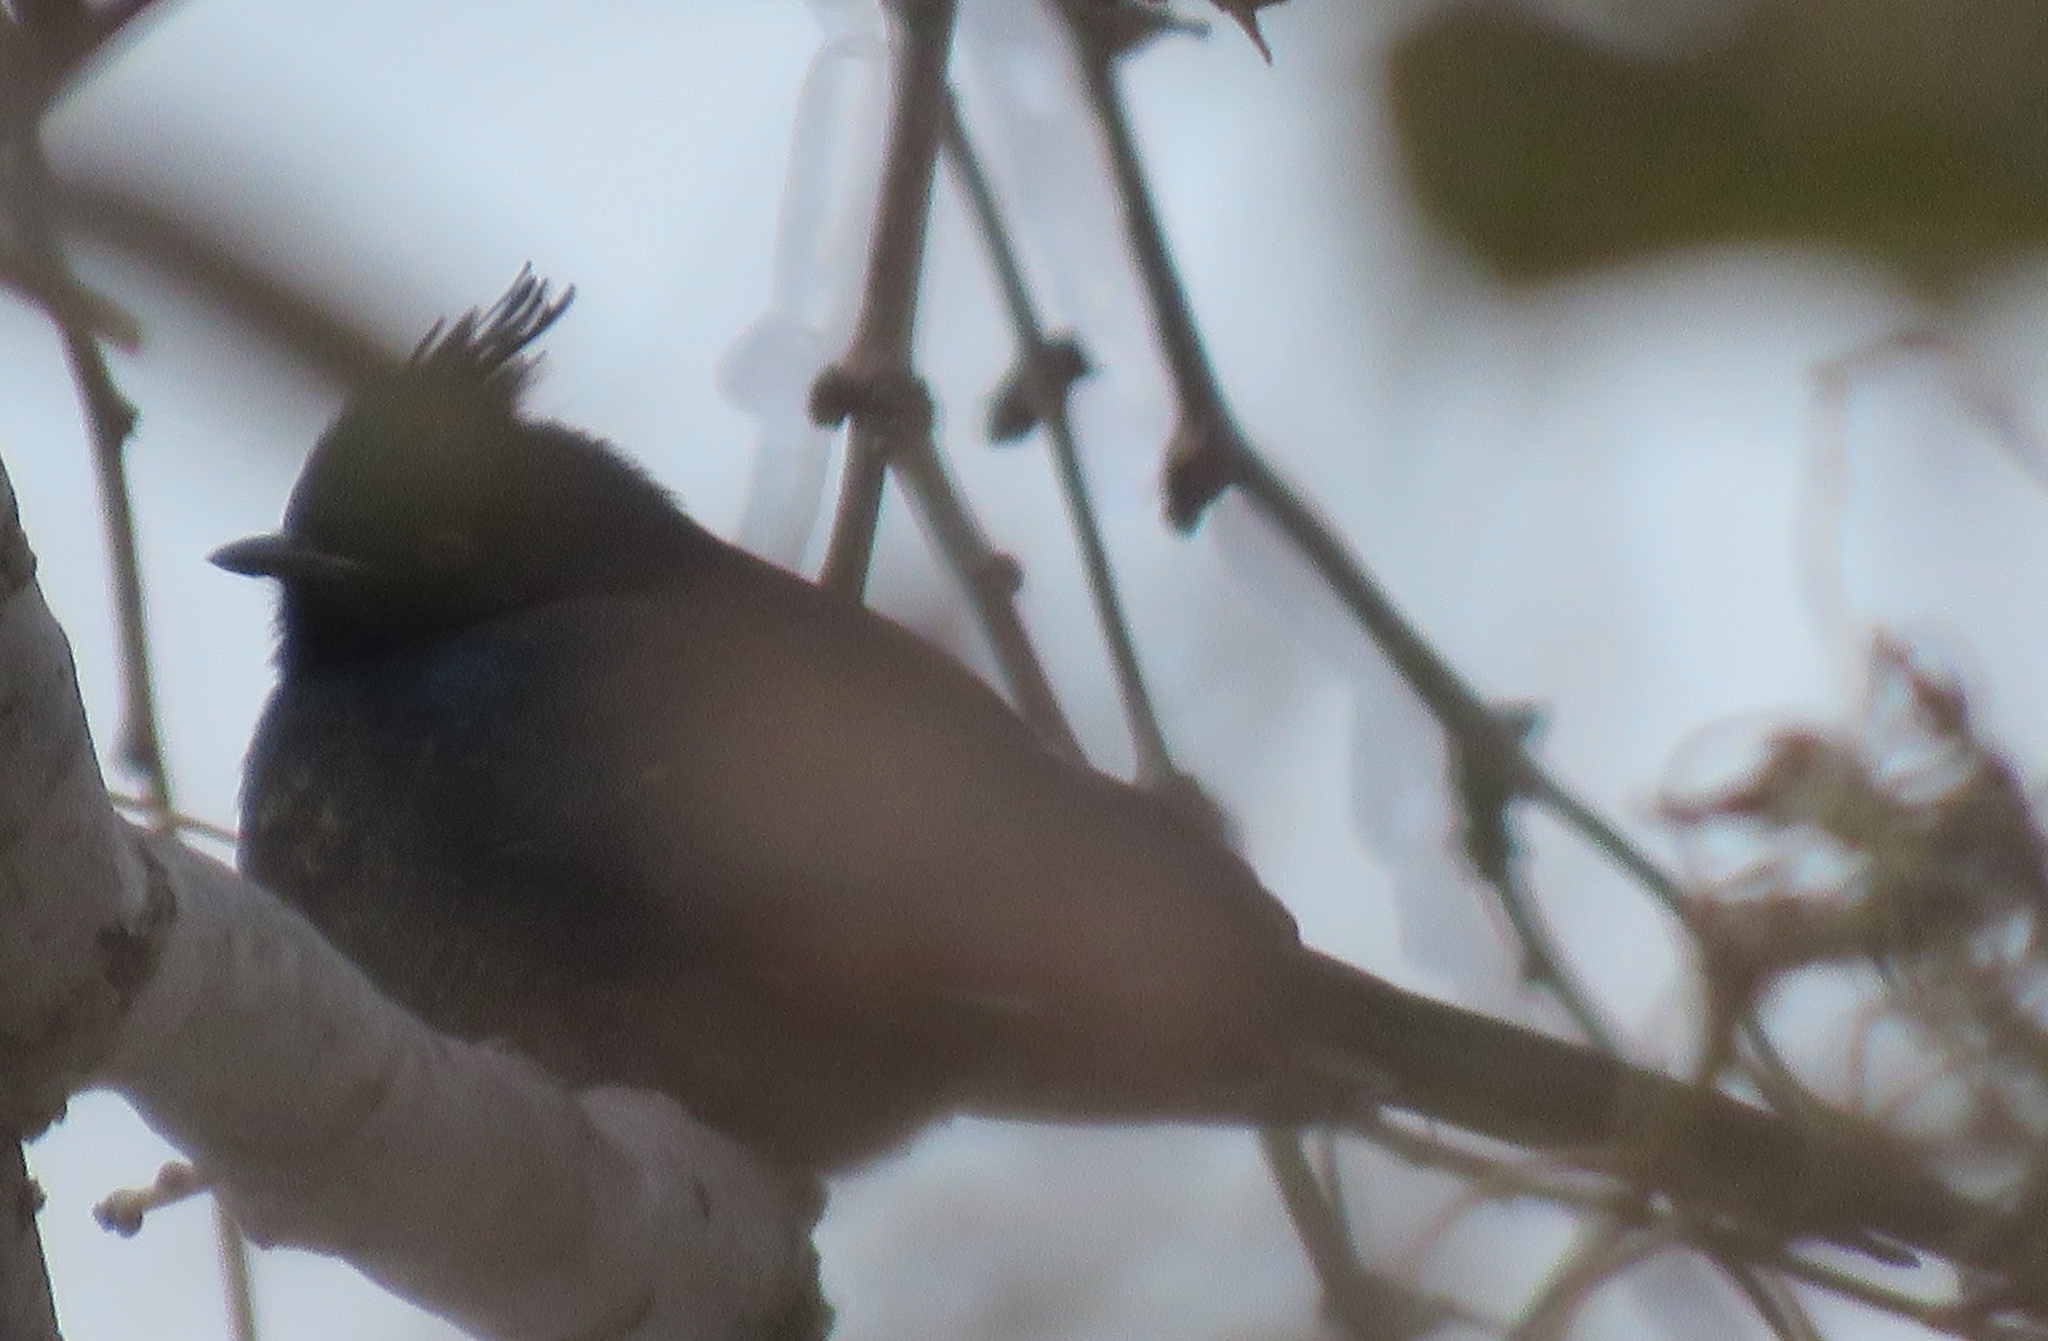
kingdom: Animalia
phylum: Chordata
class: Aves
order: Passeriformes
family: Ptilogonatidae
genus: Phainopepla
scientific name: Phainopepla nitens
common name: Phainopepla
